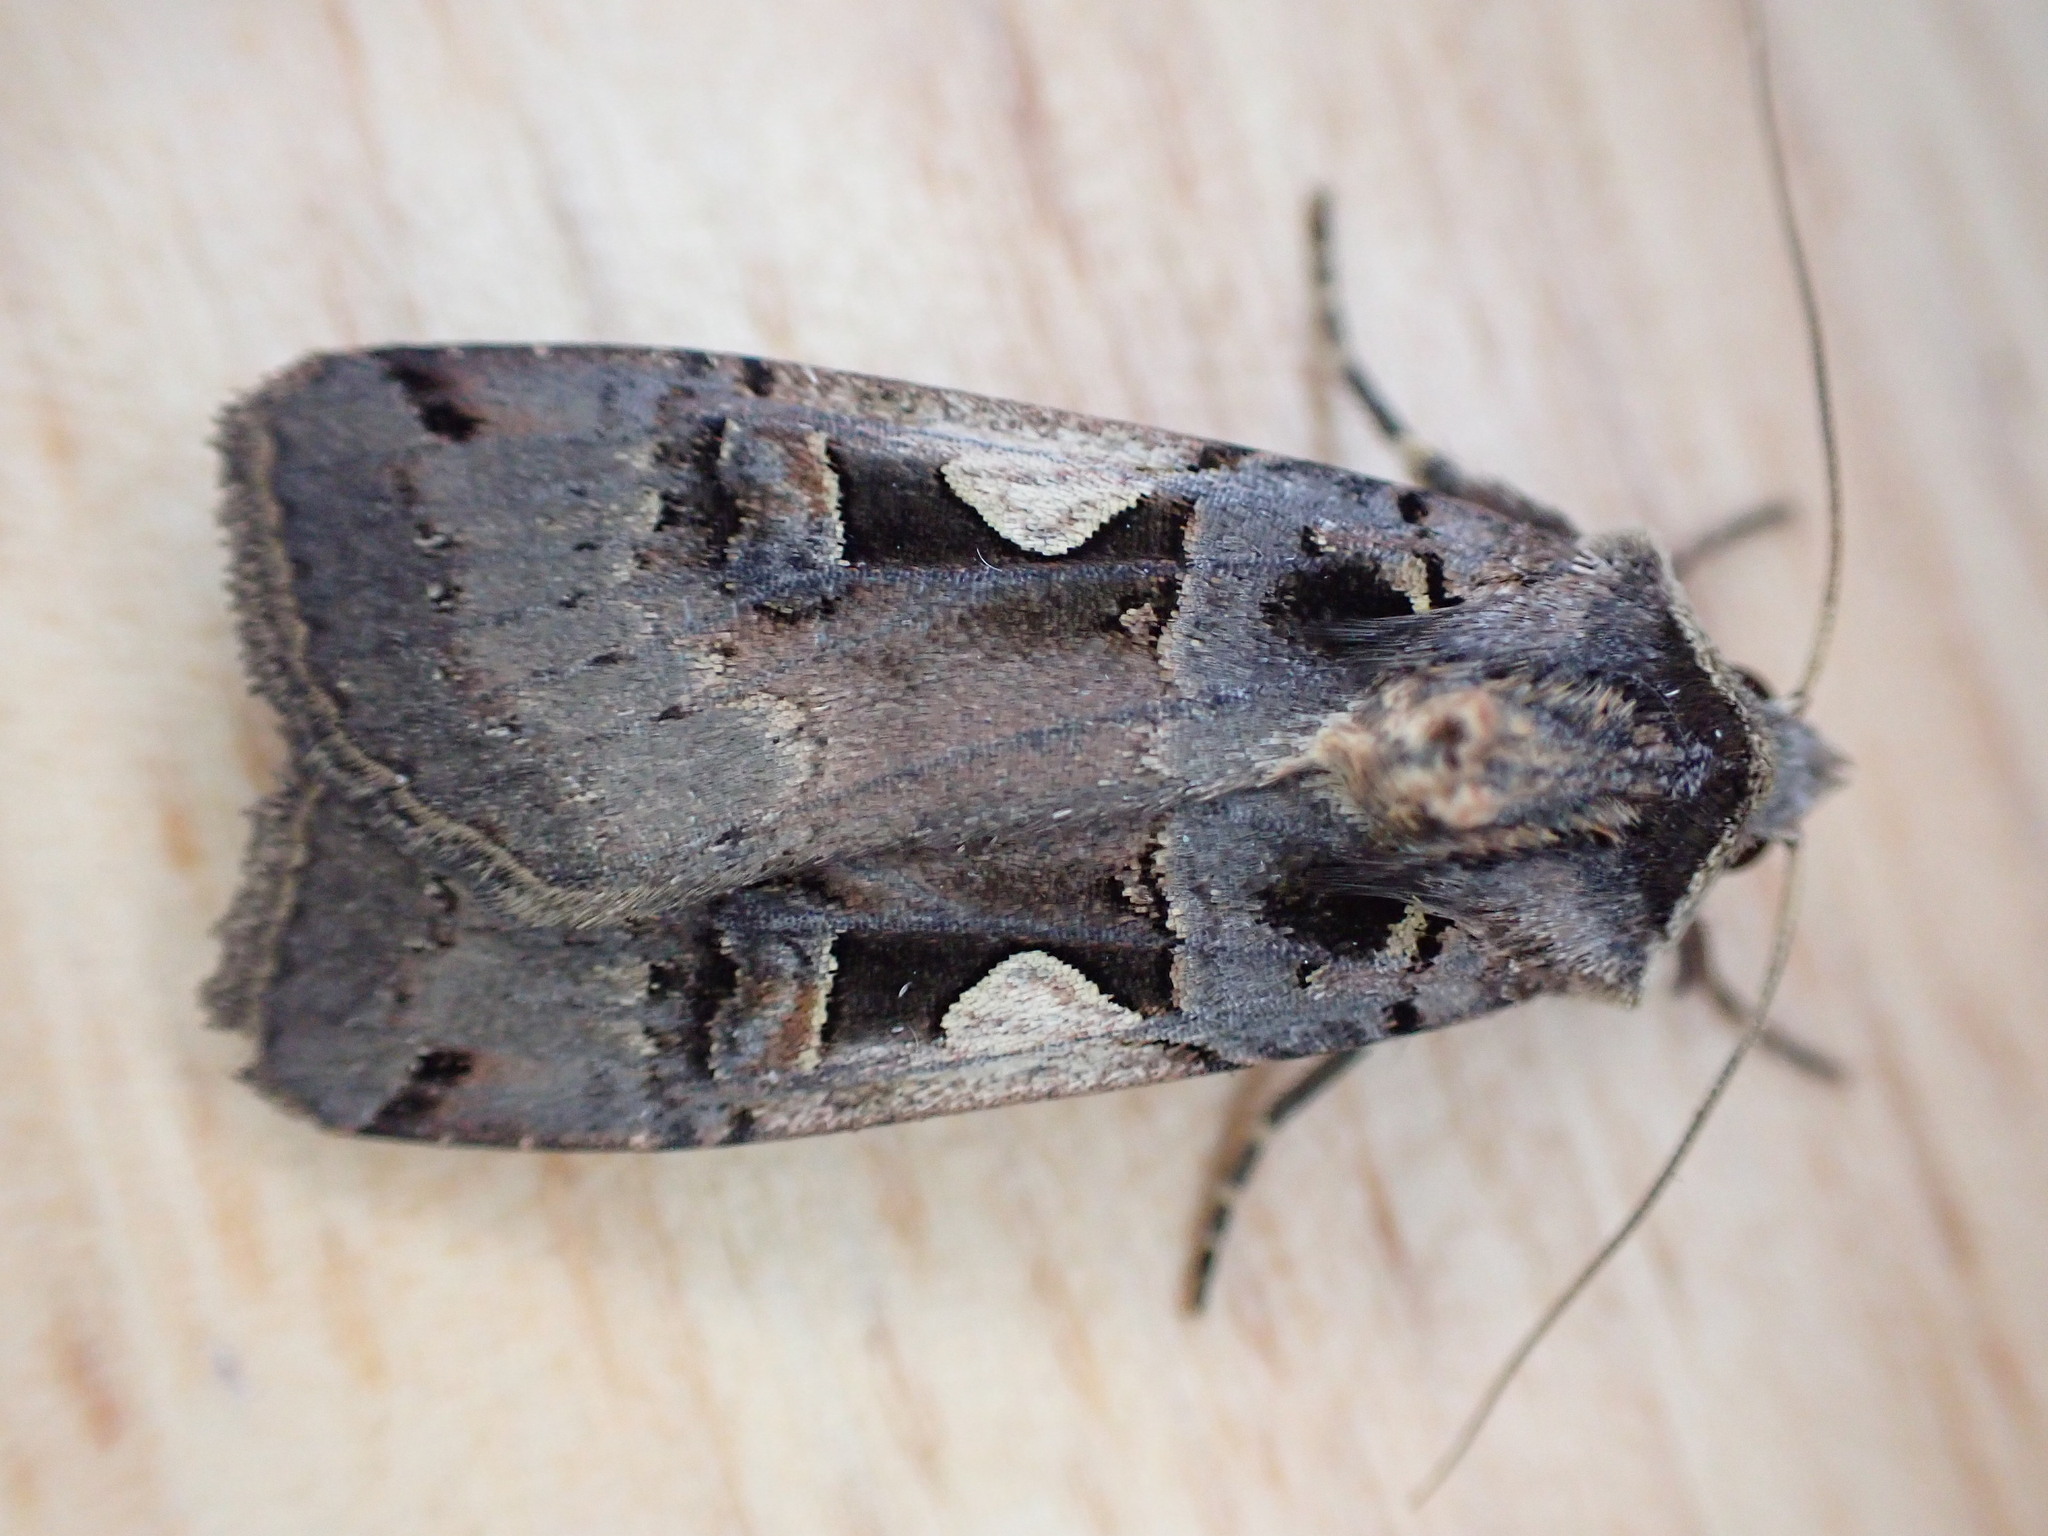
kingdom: Animalia
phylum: Arthropoda
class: Insecta
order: Lepidoptera
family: Noctuidae
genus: Xestia
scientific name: Xestia c-nigrum
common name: Setaceous hebrew character
